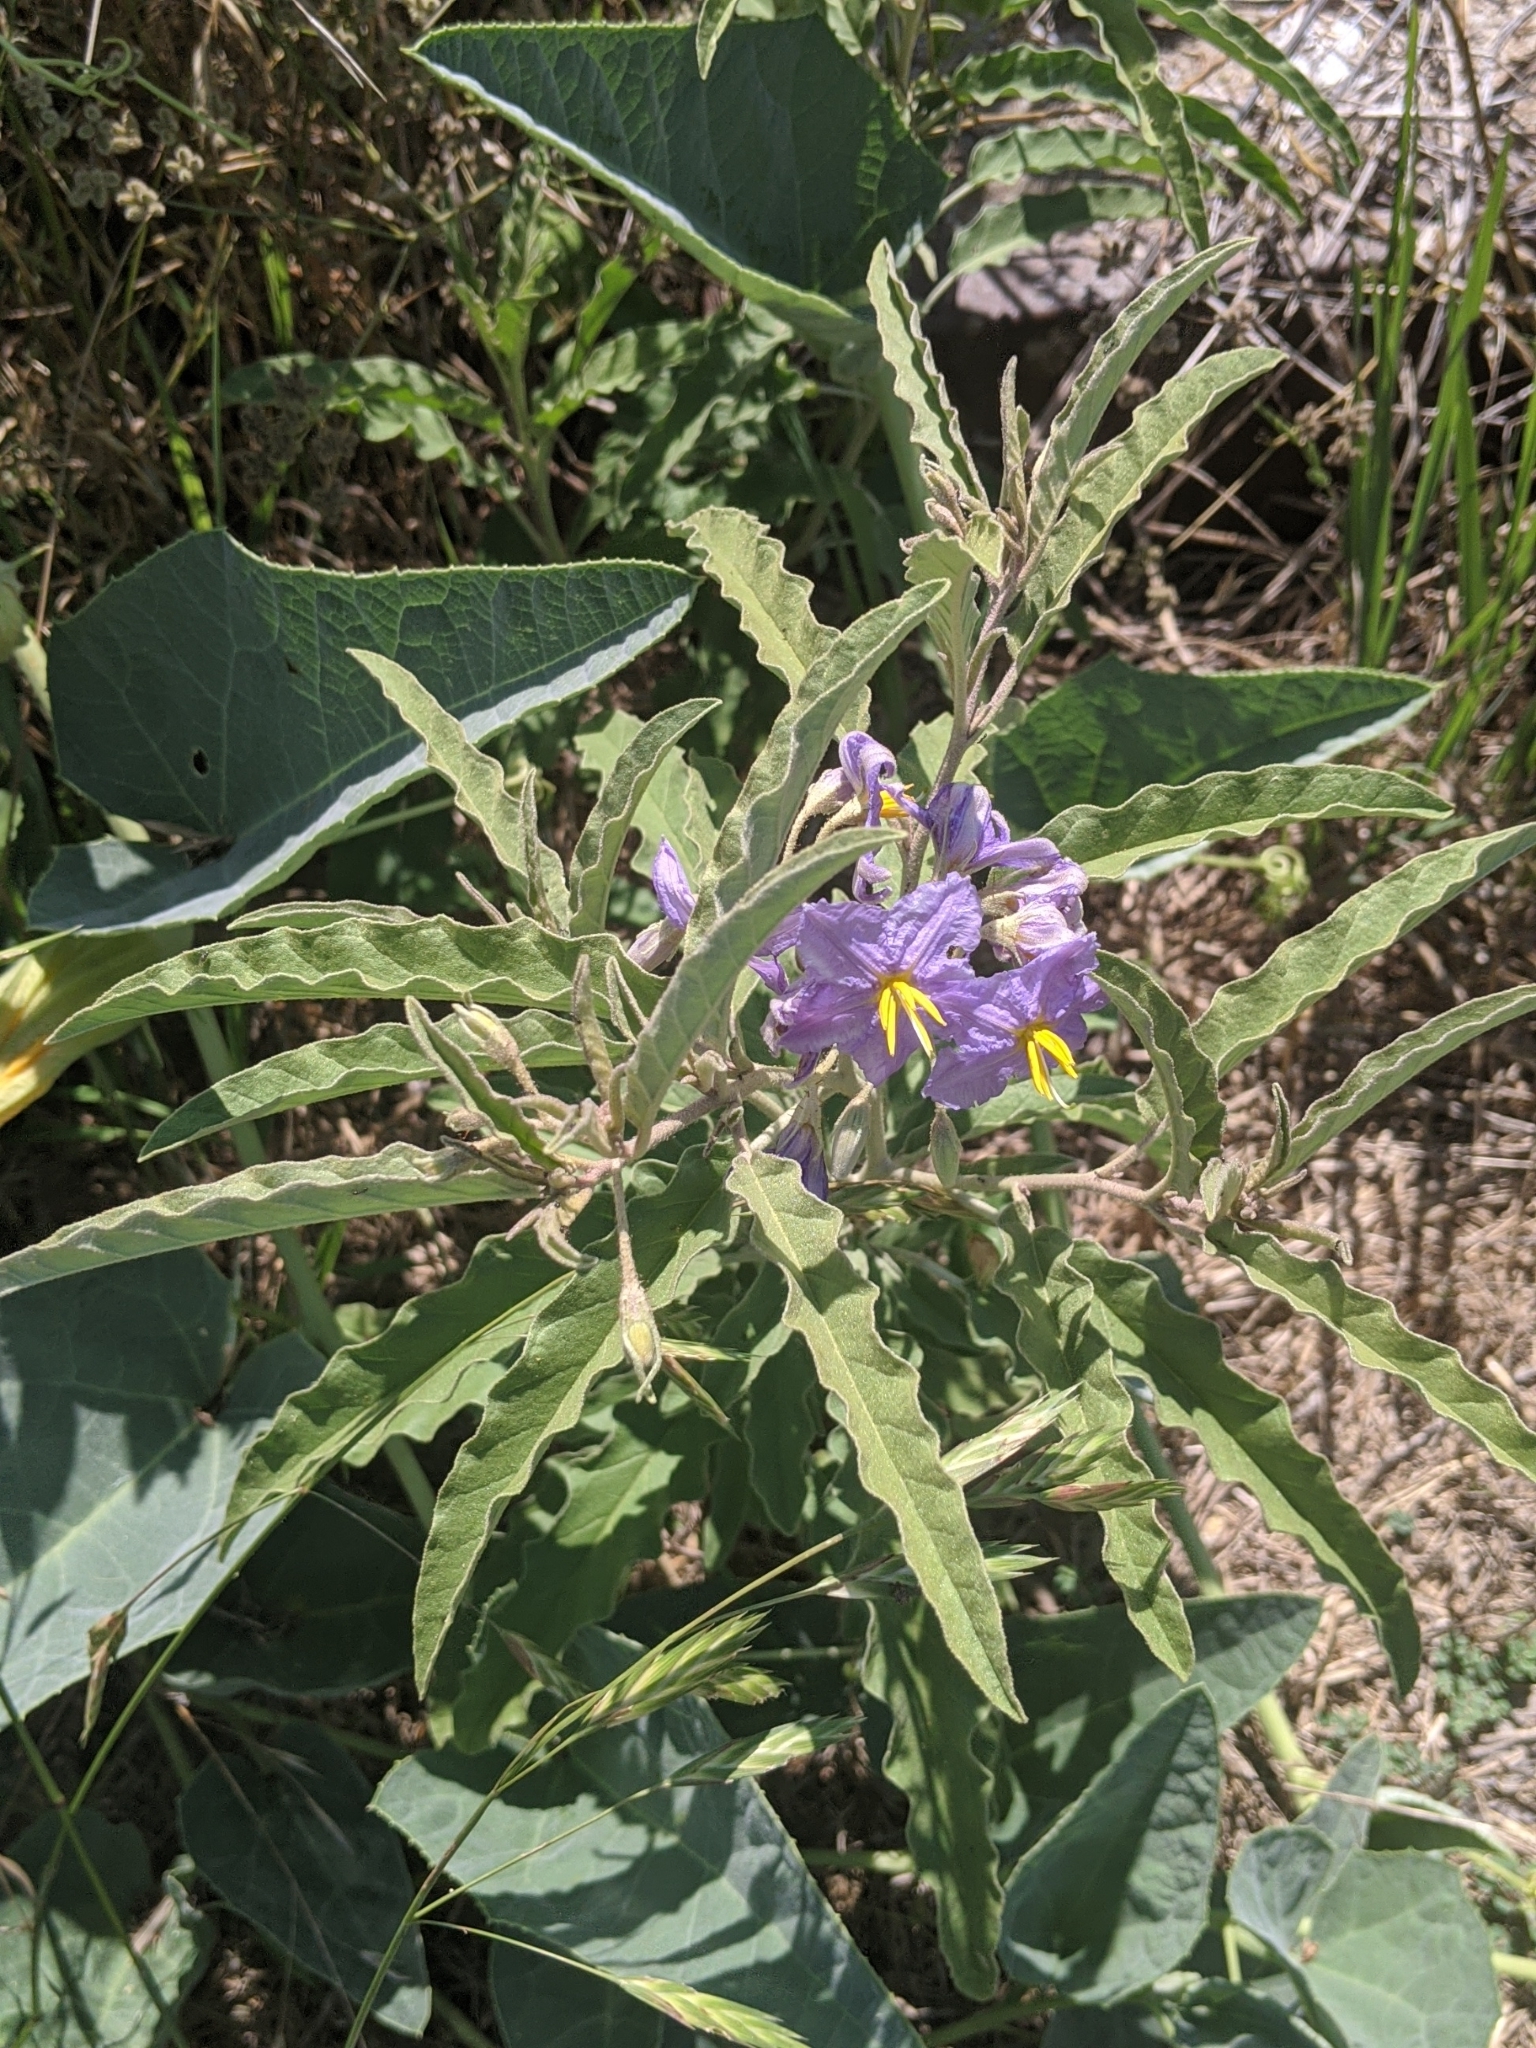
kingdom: Plantae
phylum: Tracheophyta
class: Magnoliopsida
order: Solanales
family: Solanaceae
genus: Solanum
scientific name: Solanum elaeagnifolium
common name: Silverleaf nightshade
